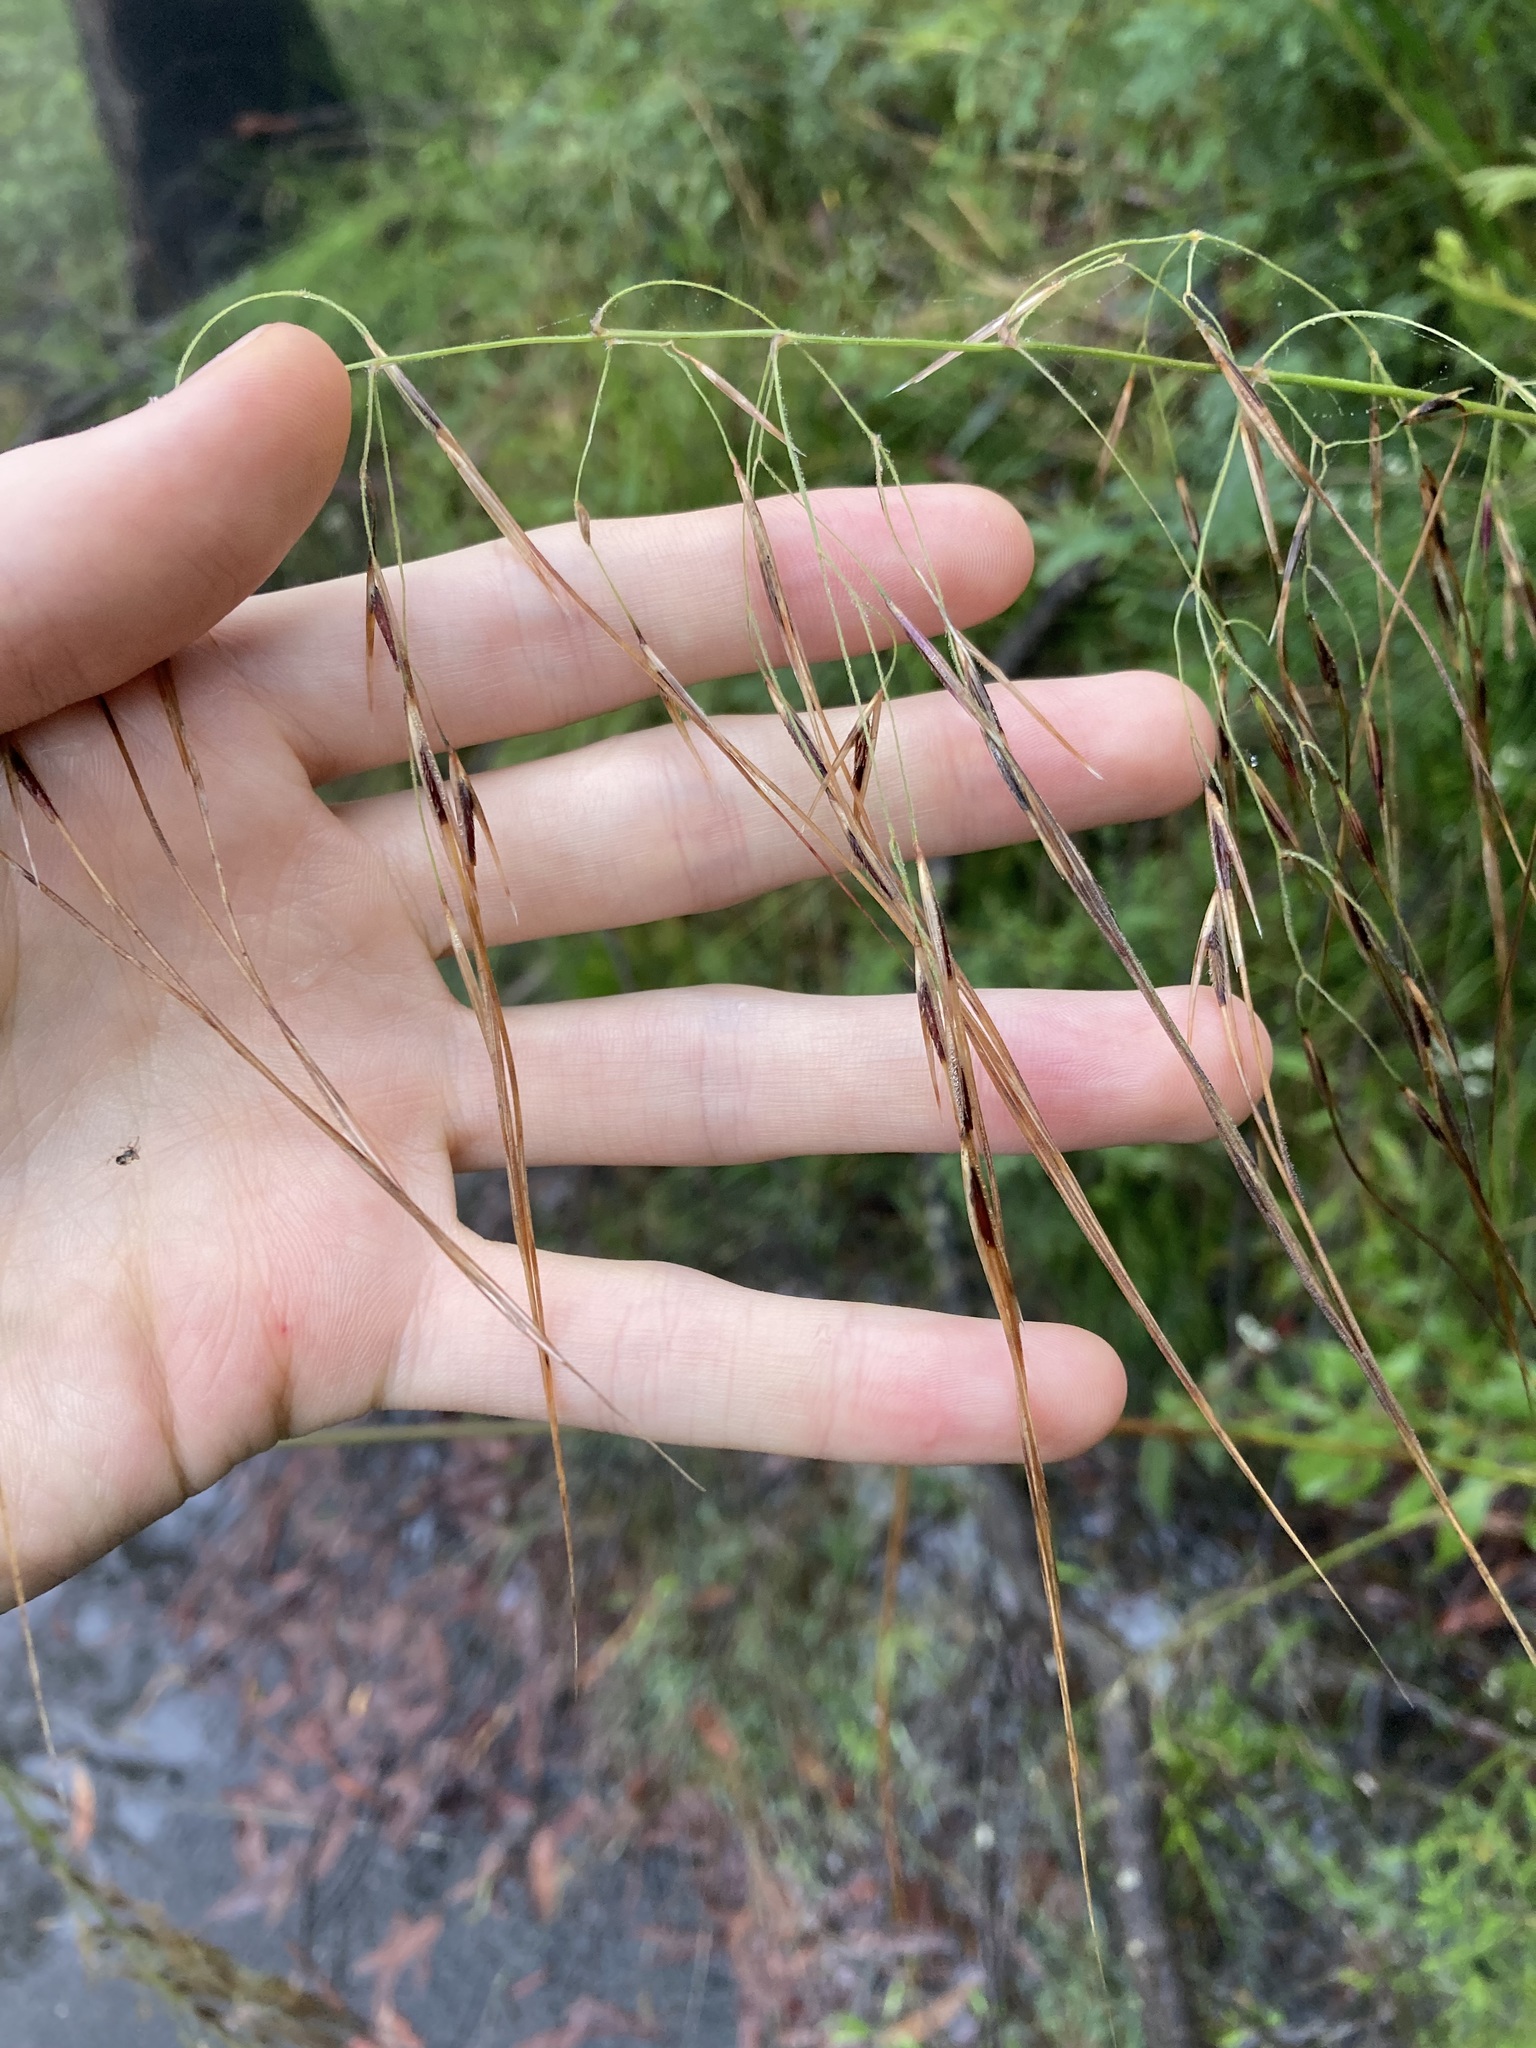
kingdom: Plantae
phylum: Tracheophyta
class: Liliopsida
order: Poales
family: Poaceae
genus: Austrostipa
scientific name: Austrostipa pubescens
